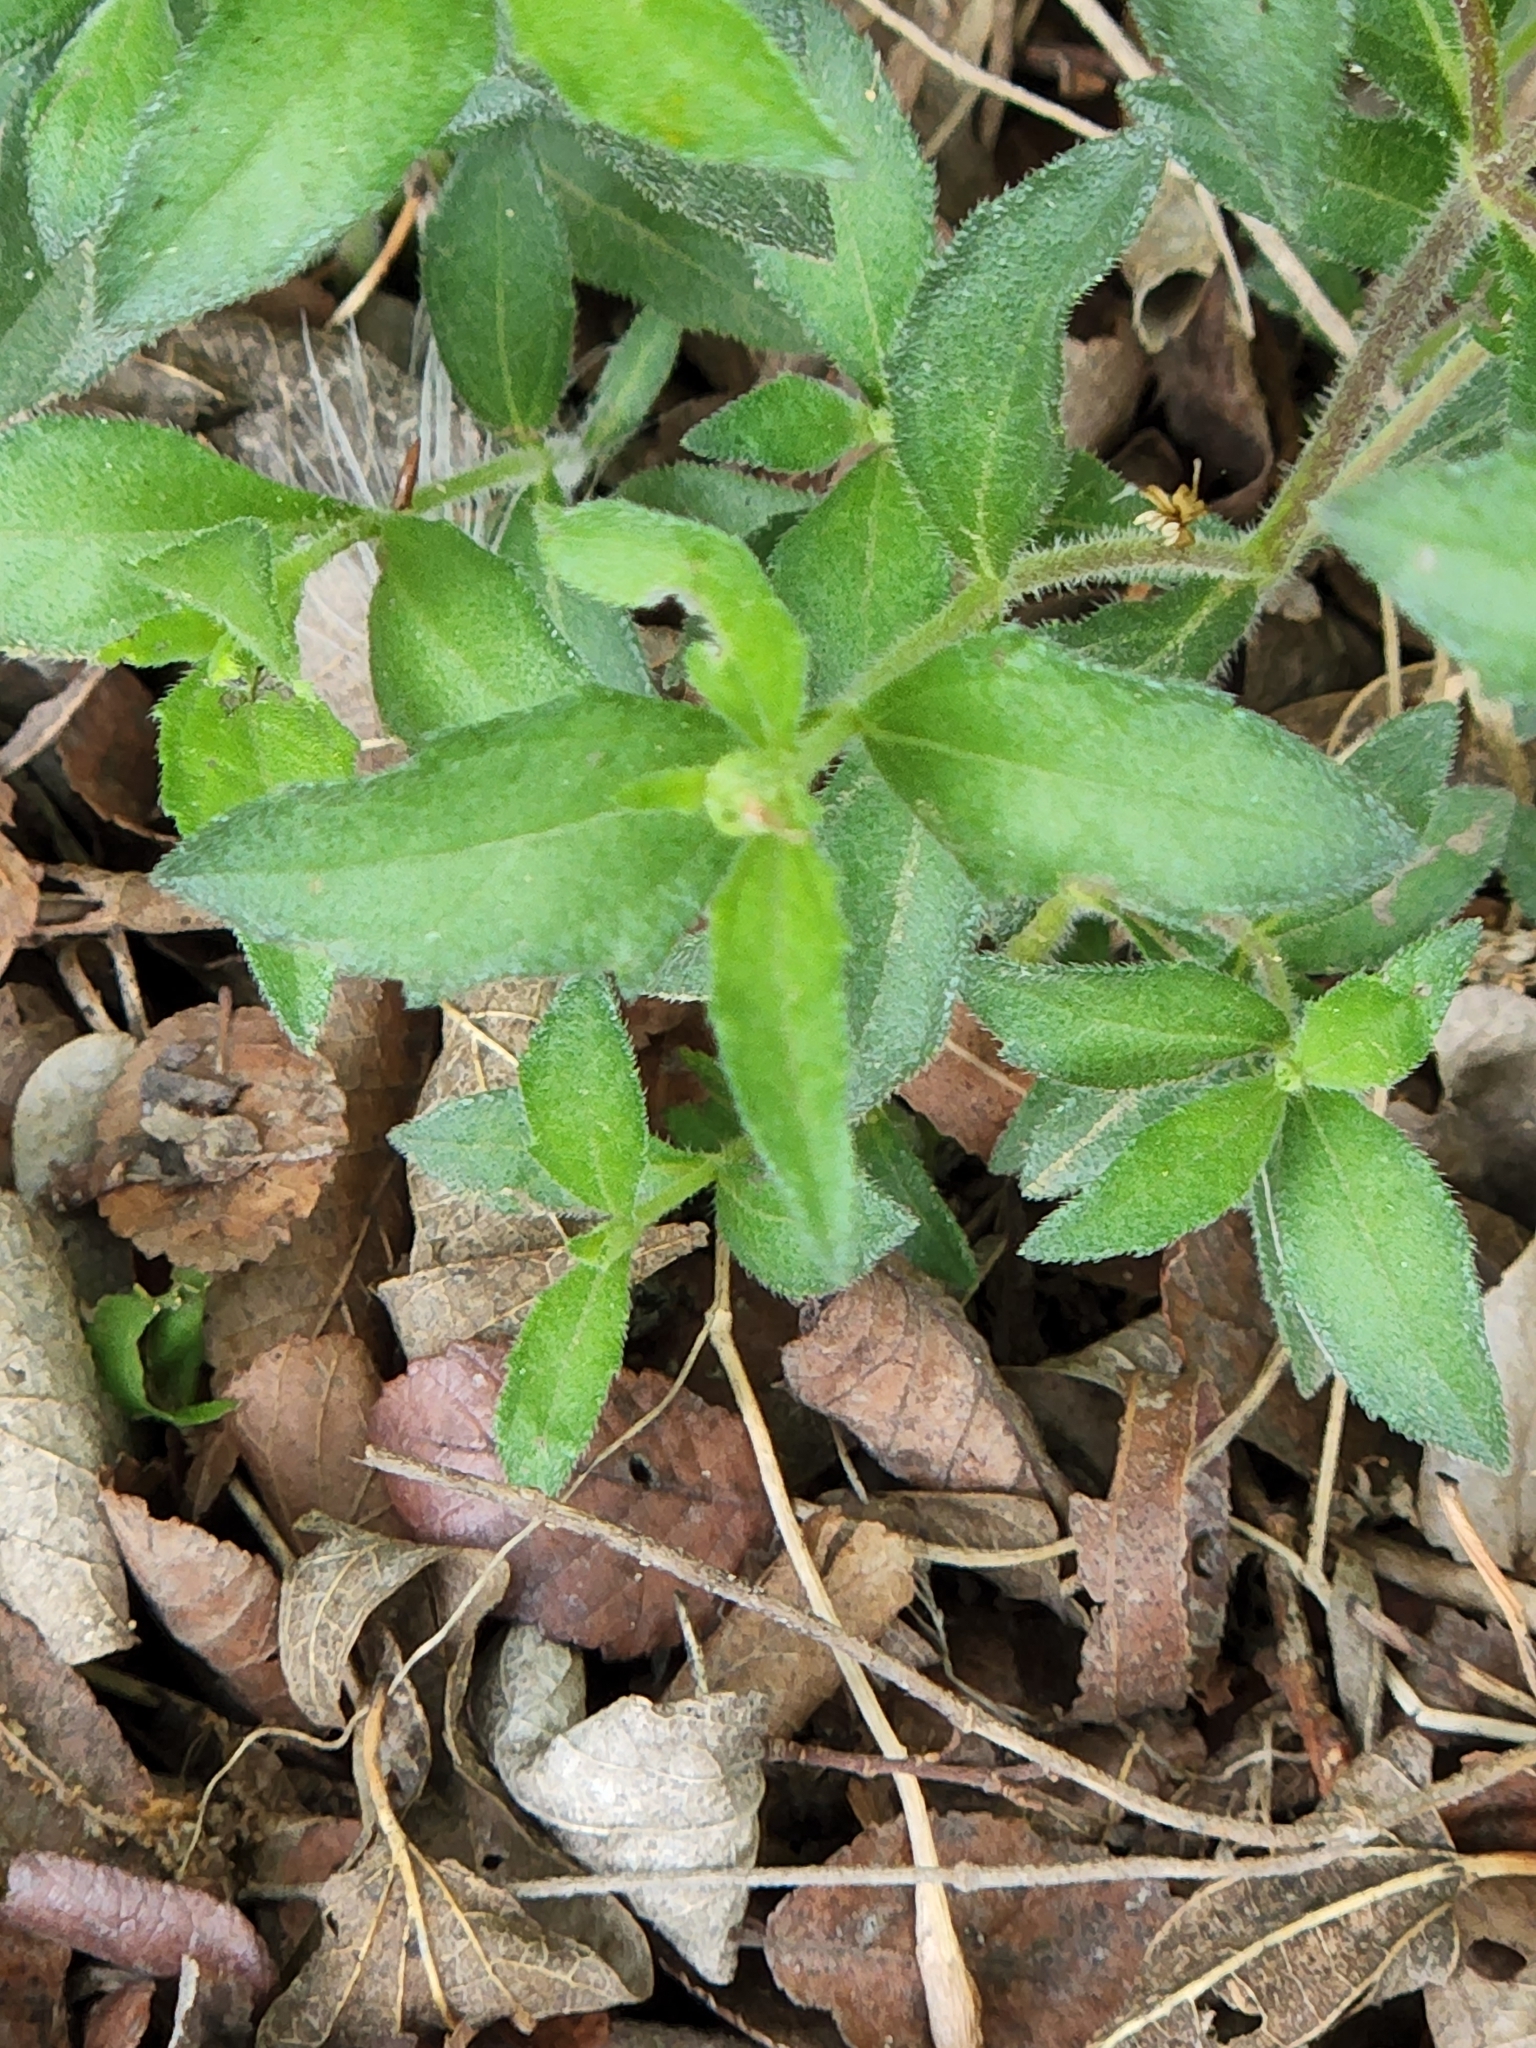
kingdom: Plantae
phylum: Tracheophyta
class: Magnoliopsida
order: Asterales
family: Asteraceae
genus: Wedelia
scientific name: Wedelia acapulcensis
